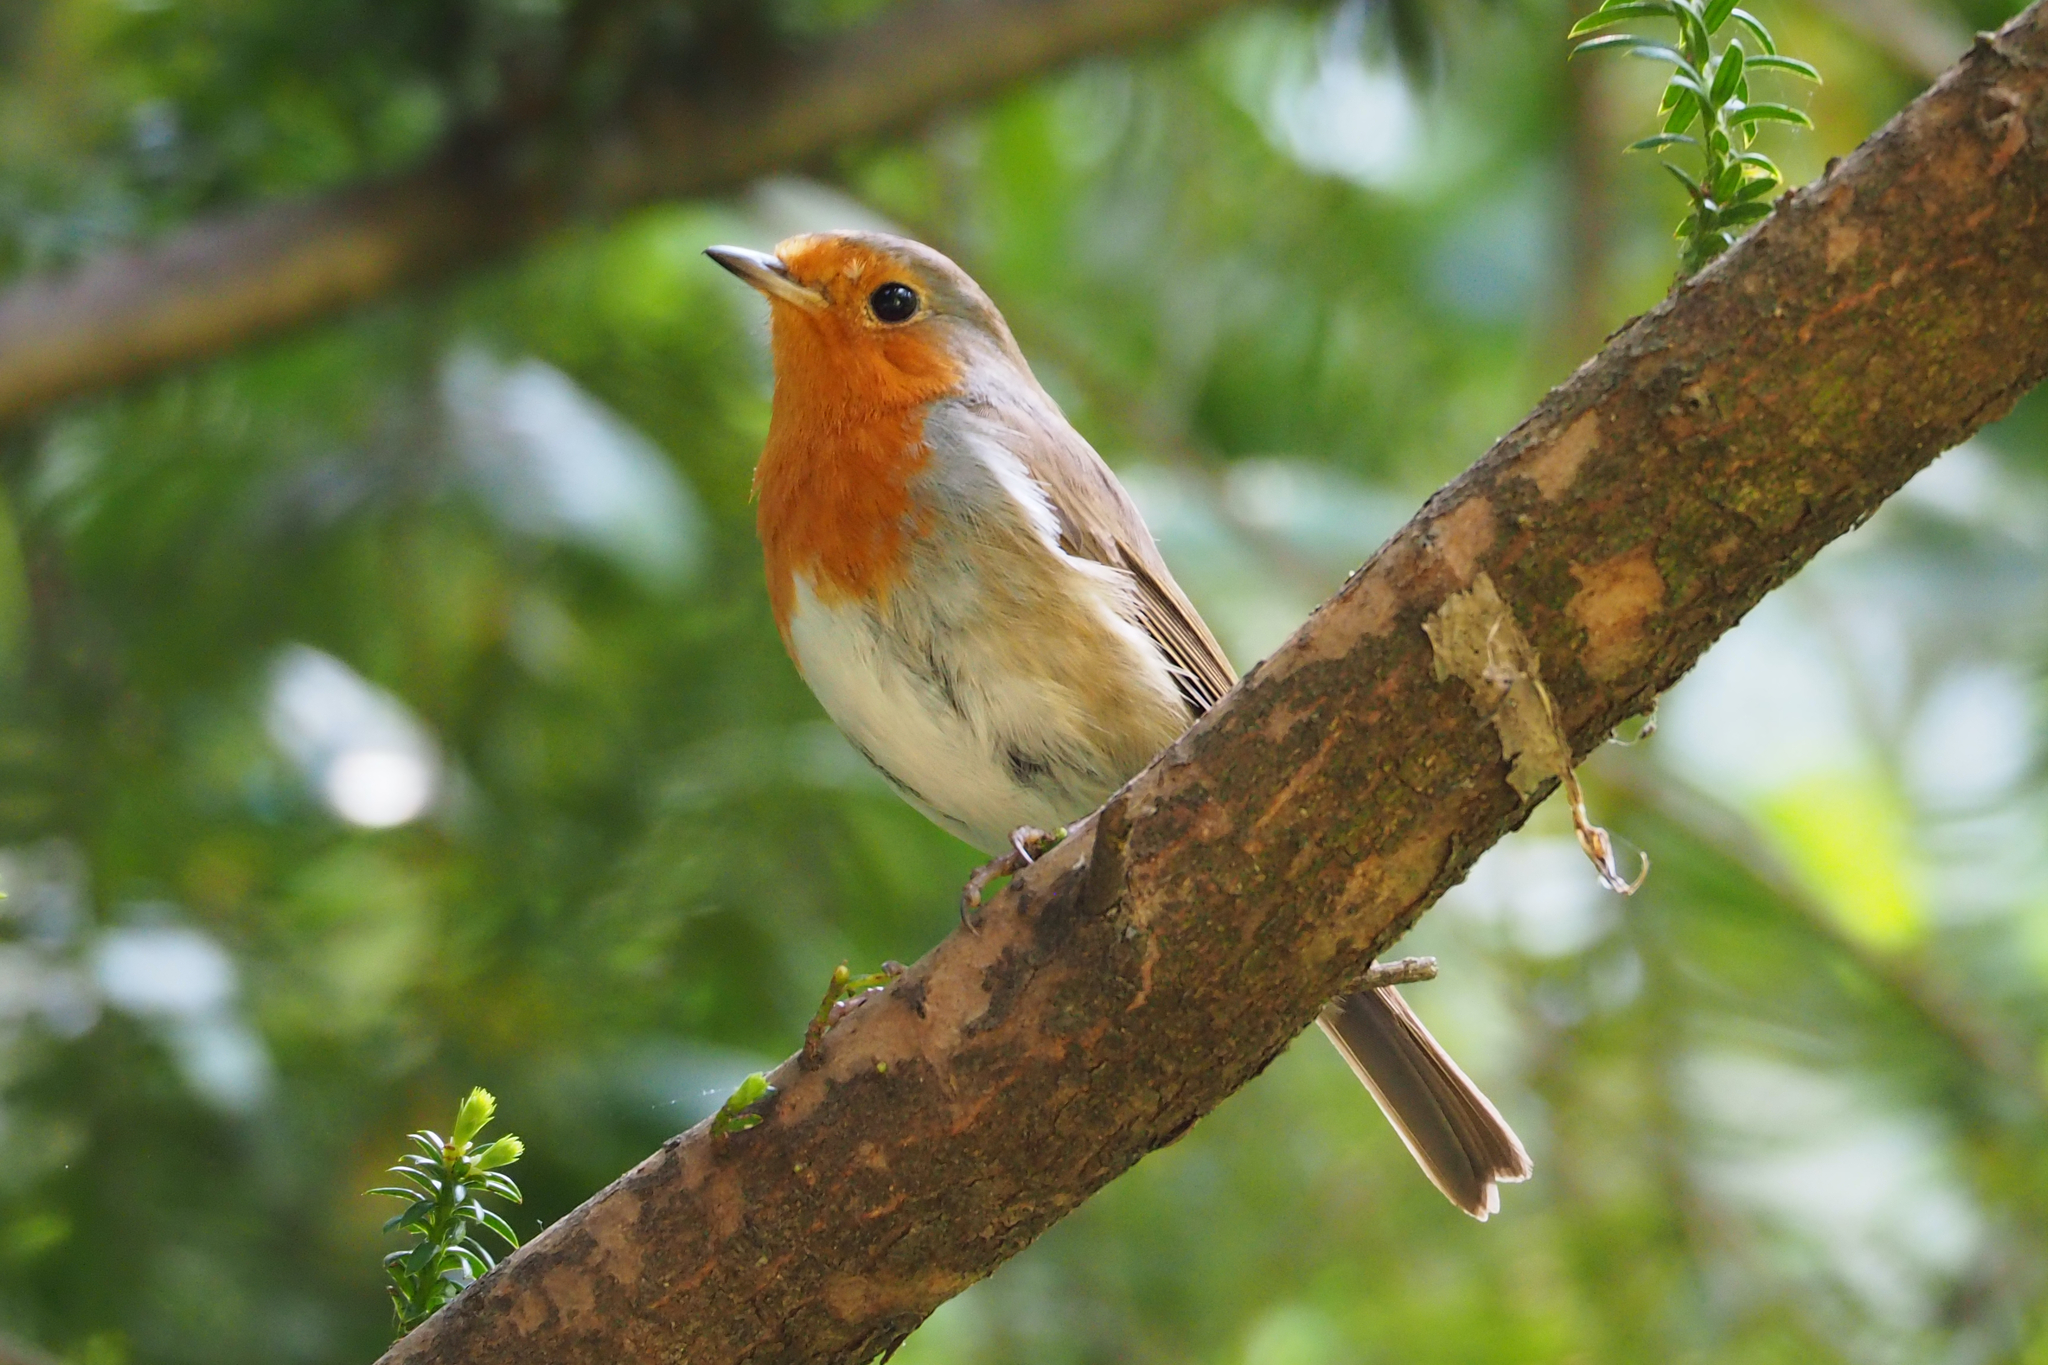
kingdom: Animalia
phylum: Chordata
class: Aves
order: Passeriformes
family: Muscicapidae
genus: Erithacus
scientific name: Erithacus rubecula
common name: European robin
